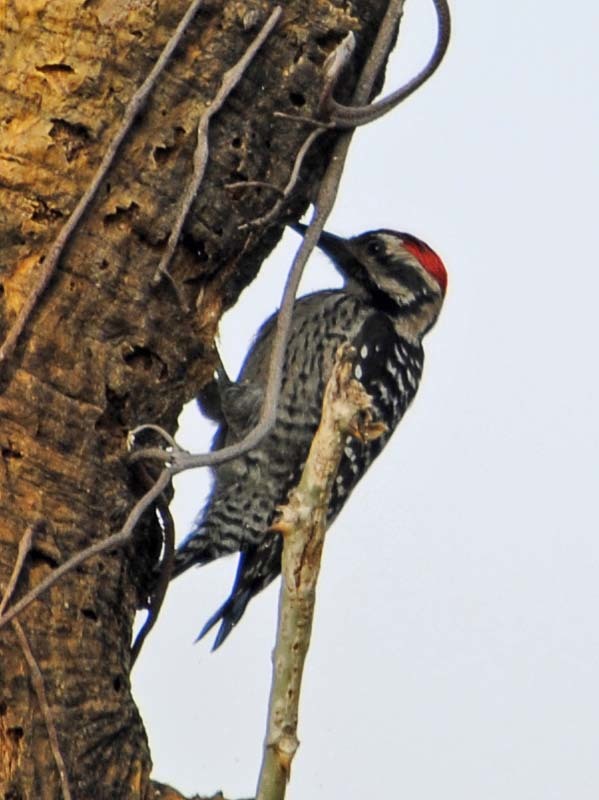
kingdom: Animalia
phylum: Chordata
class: Aves
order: Piciformes
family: Picidae
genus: Dryobates
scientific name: Dryobates scalaris
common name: Ladder-backed woodpecker
